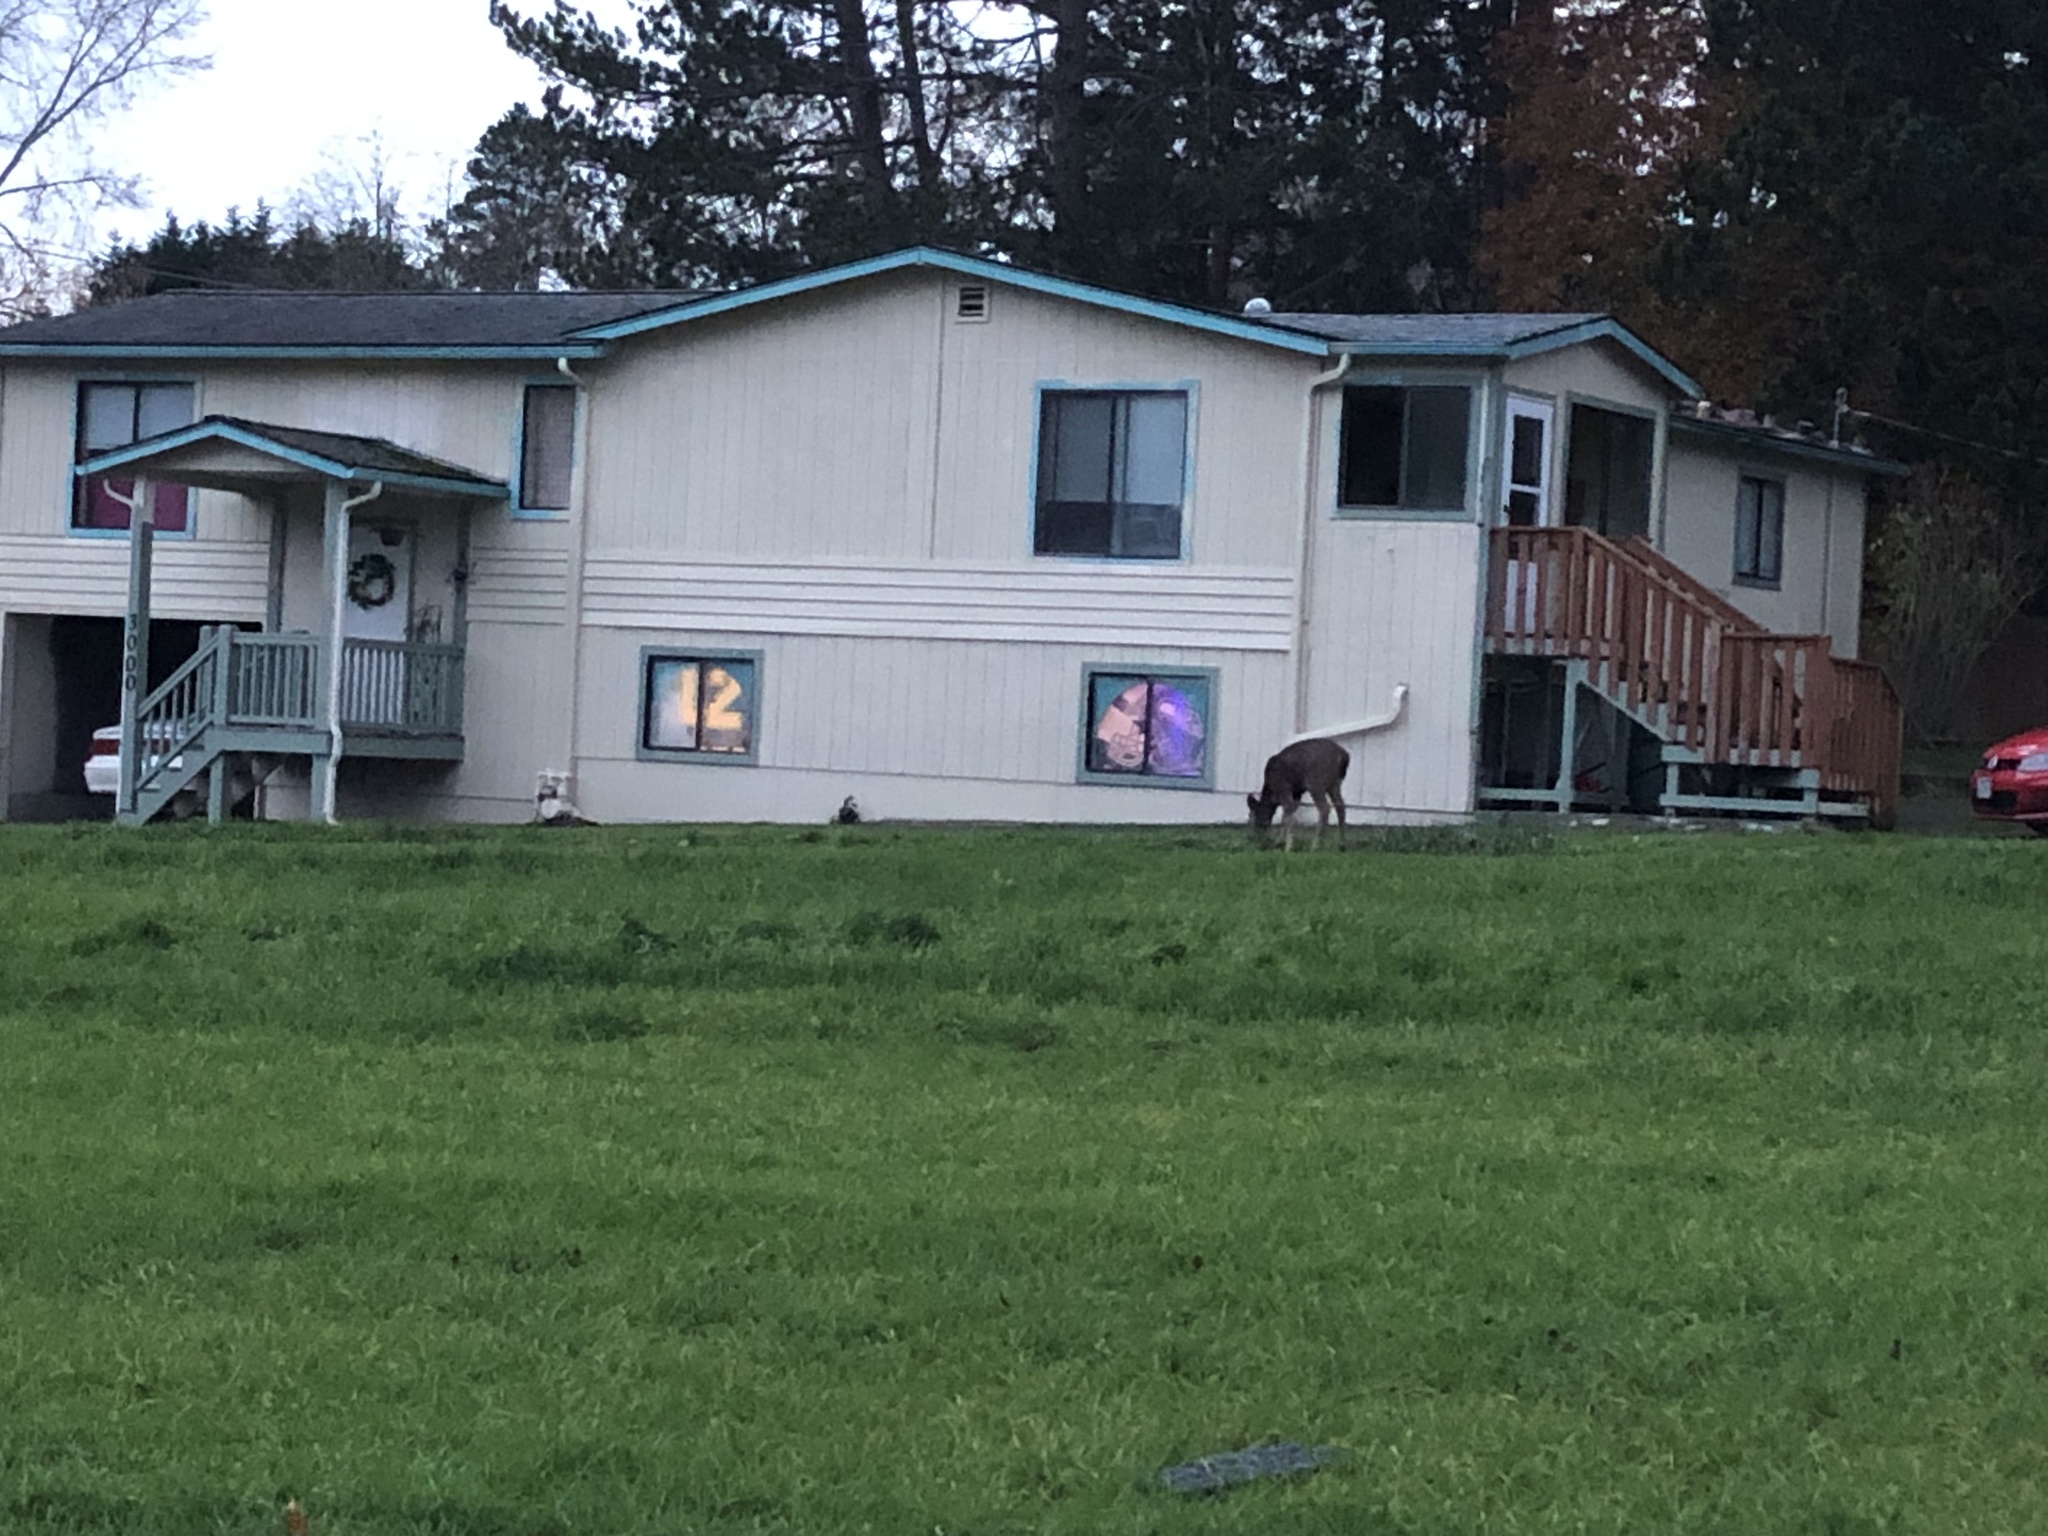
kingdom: Animalia
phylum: Chordata
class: Mammalia
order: Artiodactyla
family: Cervidae
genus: Odocoileus
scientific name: Odocoileus hemionus
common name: Mule deer
